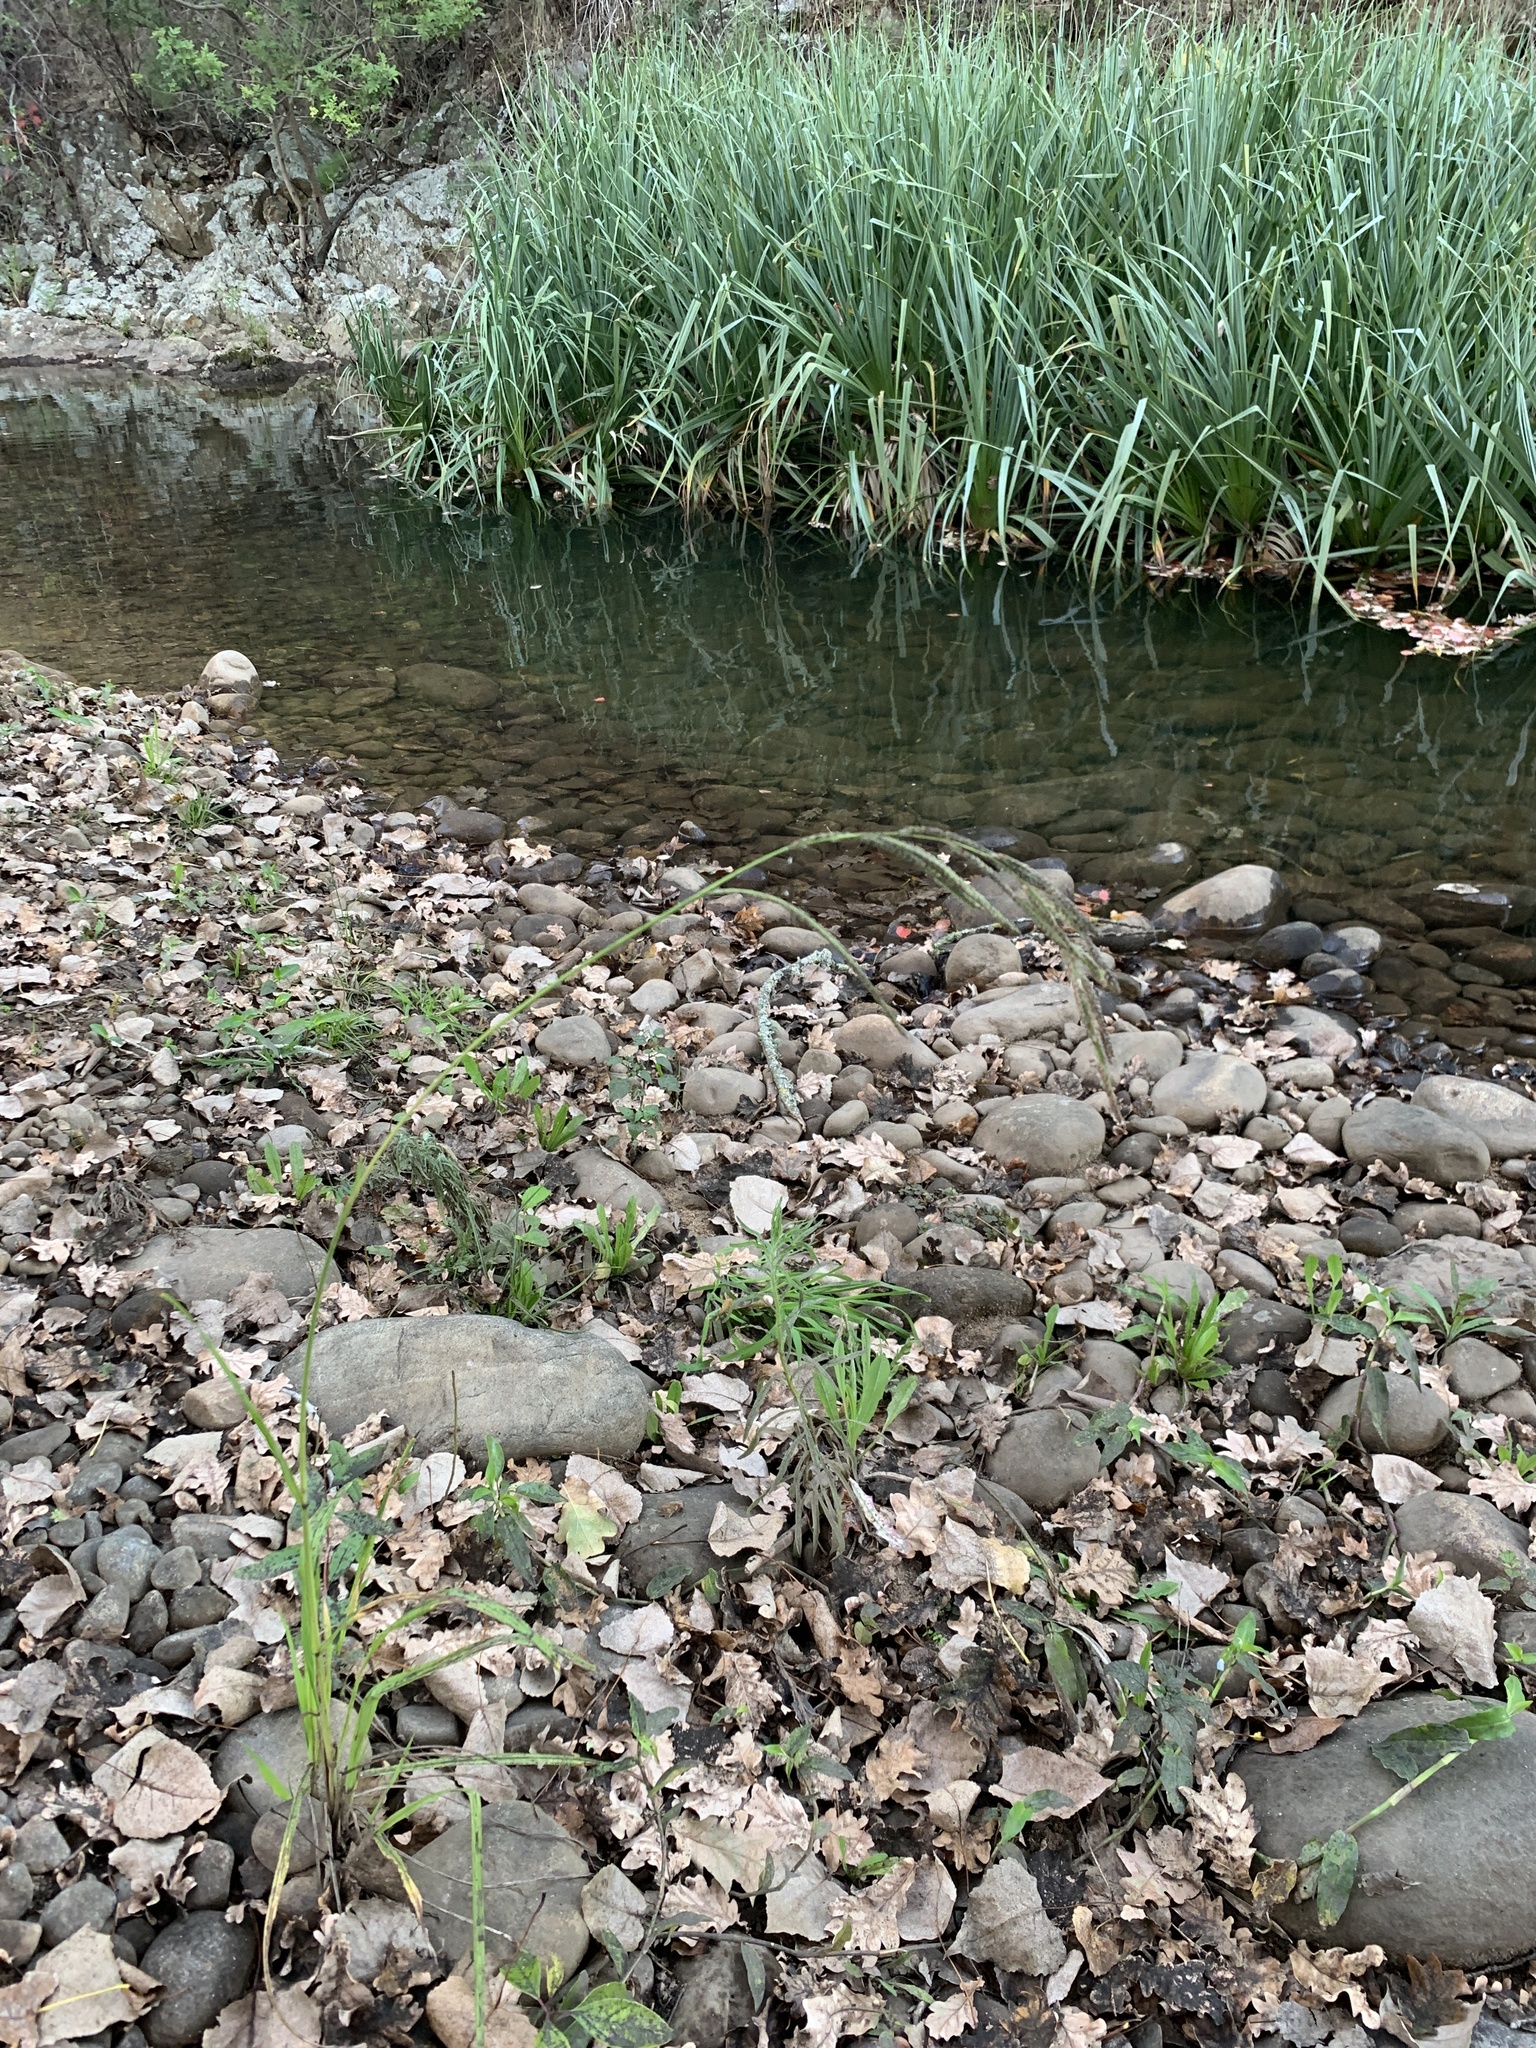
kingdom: Plantae
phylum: Tracheophyta
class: Liliopsida
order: Poales
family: Poaceae
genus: Paspalum
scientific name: Paspalum urvillei
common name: Vasey's grass
